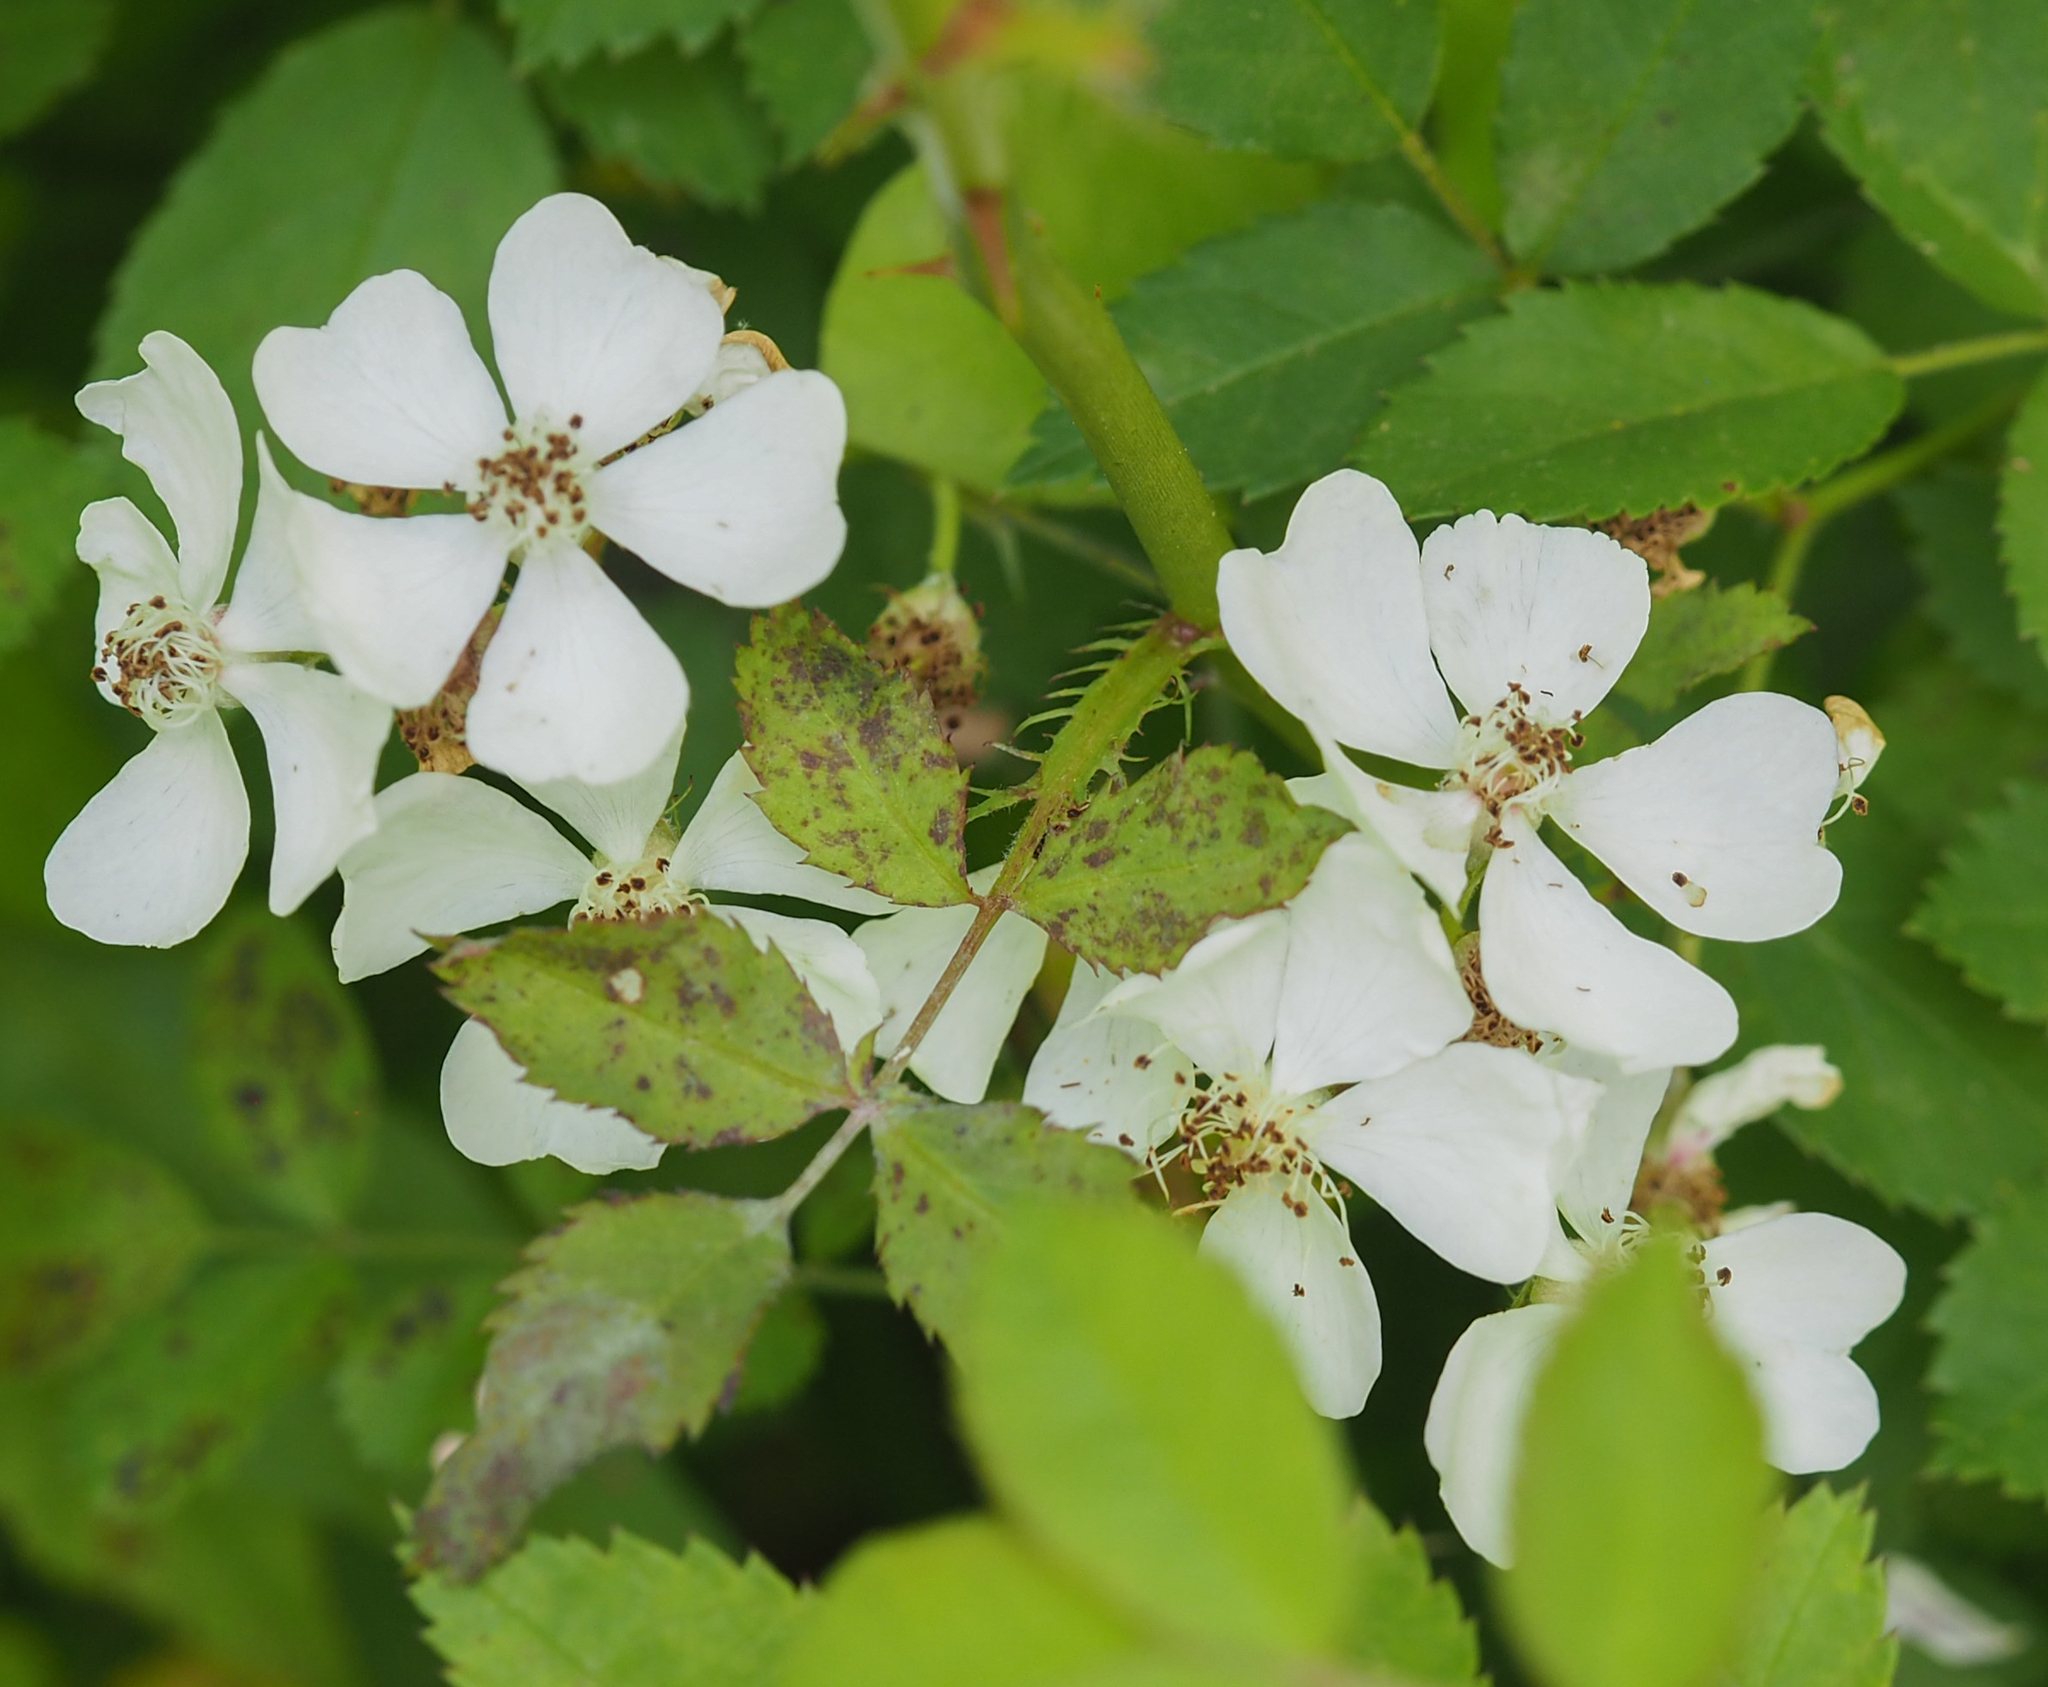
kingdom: Plantae
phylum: Tracheophyta
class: Magnoliopsida
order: Rosales
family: Rosaceae
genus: Rosa
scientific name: Rosa multiflora
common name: Multiflora rose
